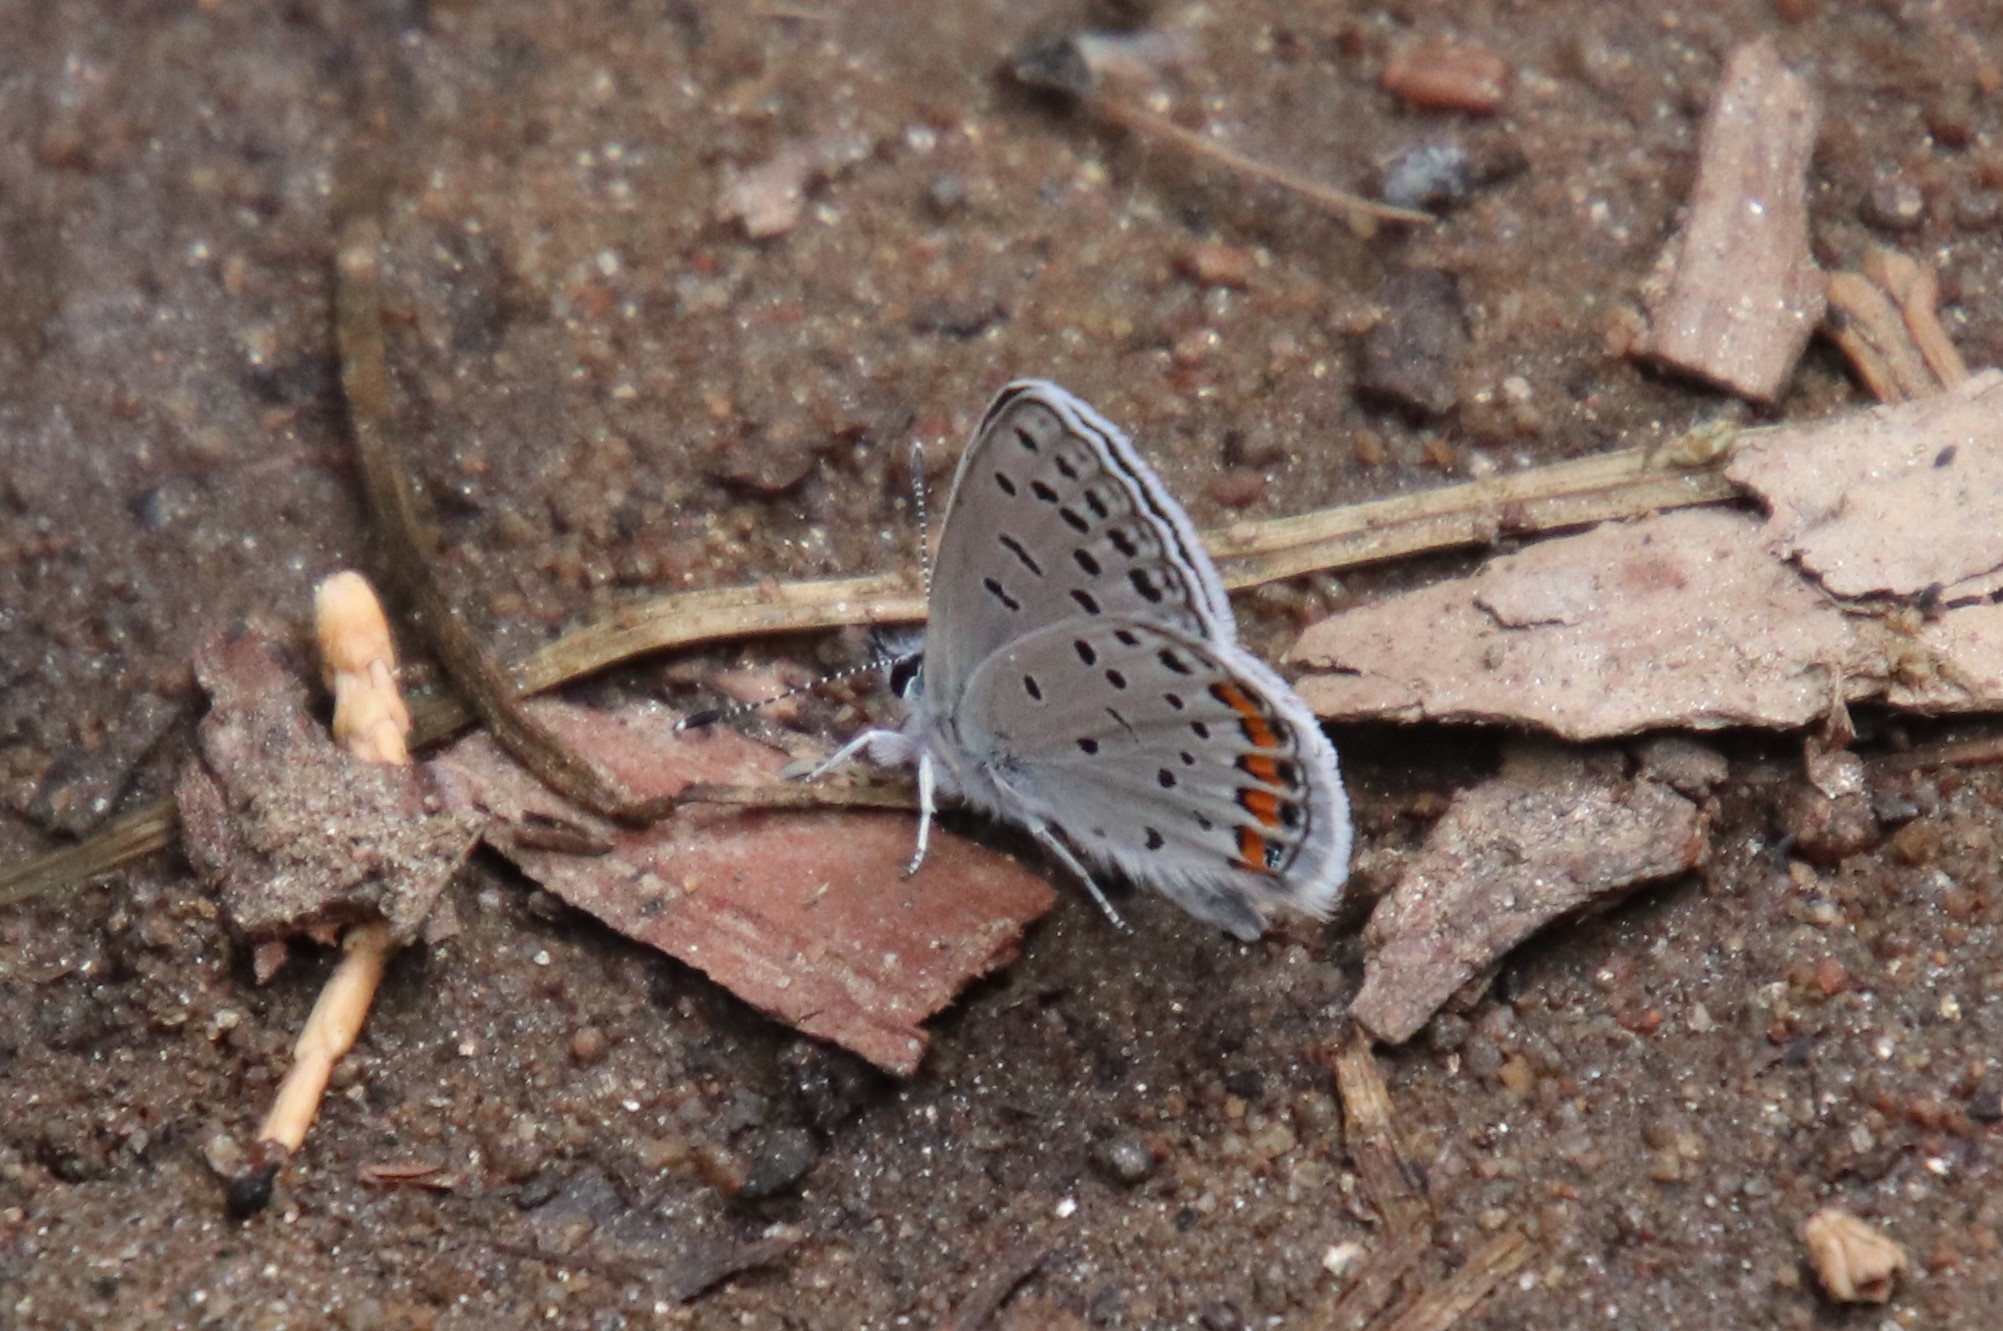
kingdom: Animalia
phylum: Arthropoda
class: Insecta
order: Lepidoptera
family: Lycaenidae
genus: Icaricia
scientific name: Icaricia acmon
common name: Acmon blue
